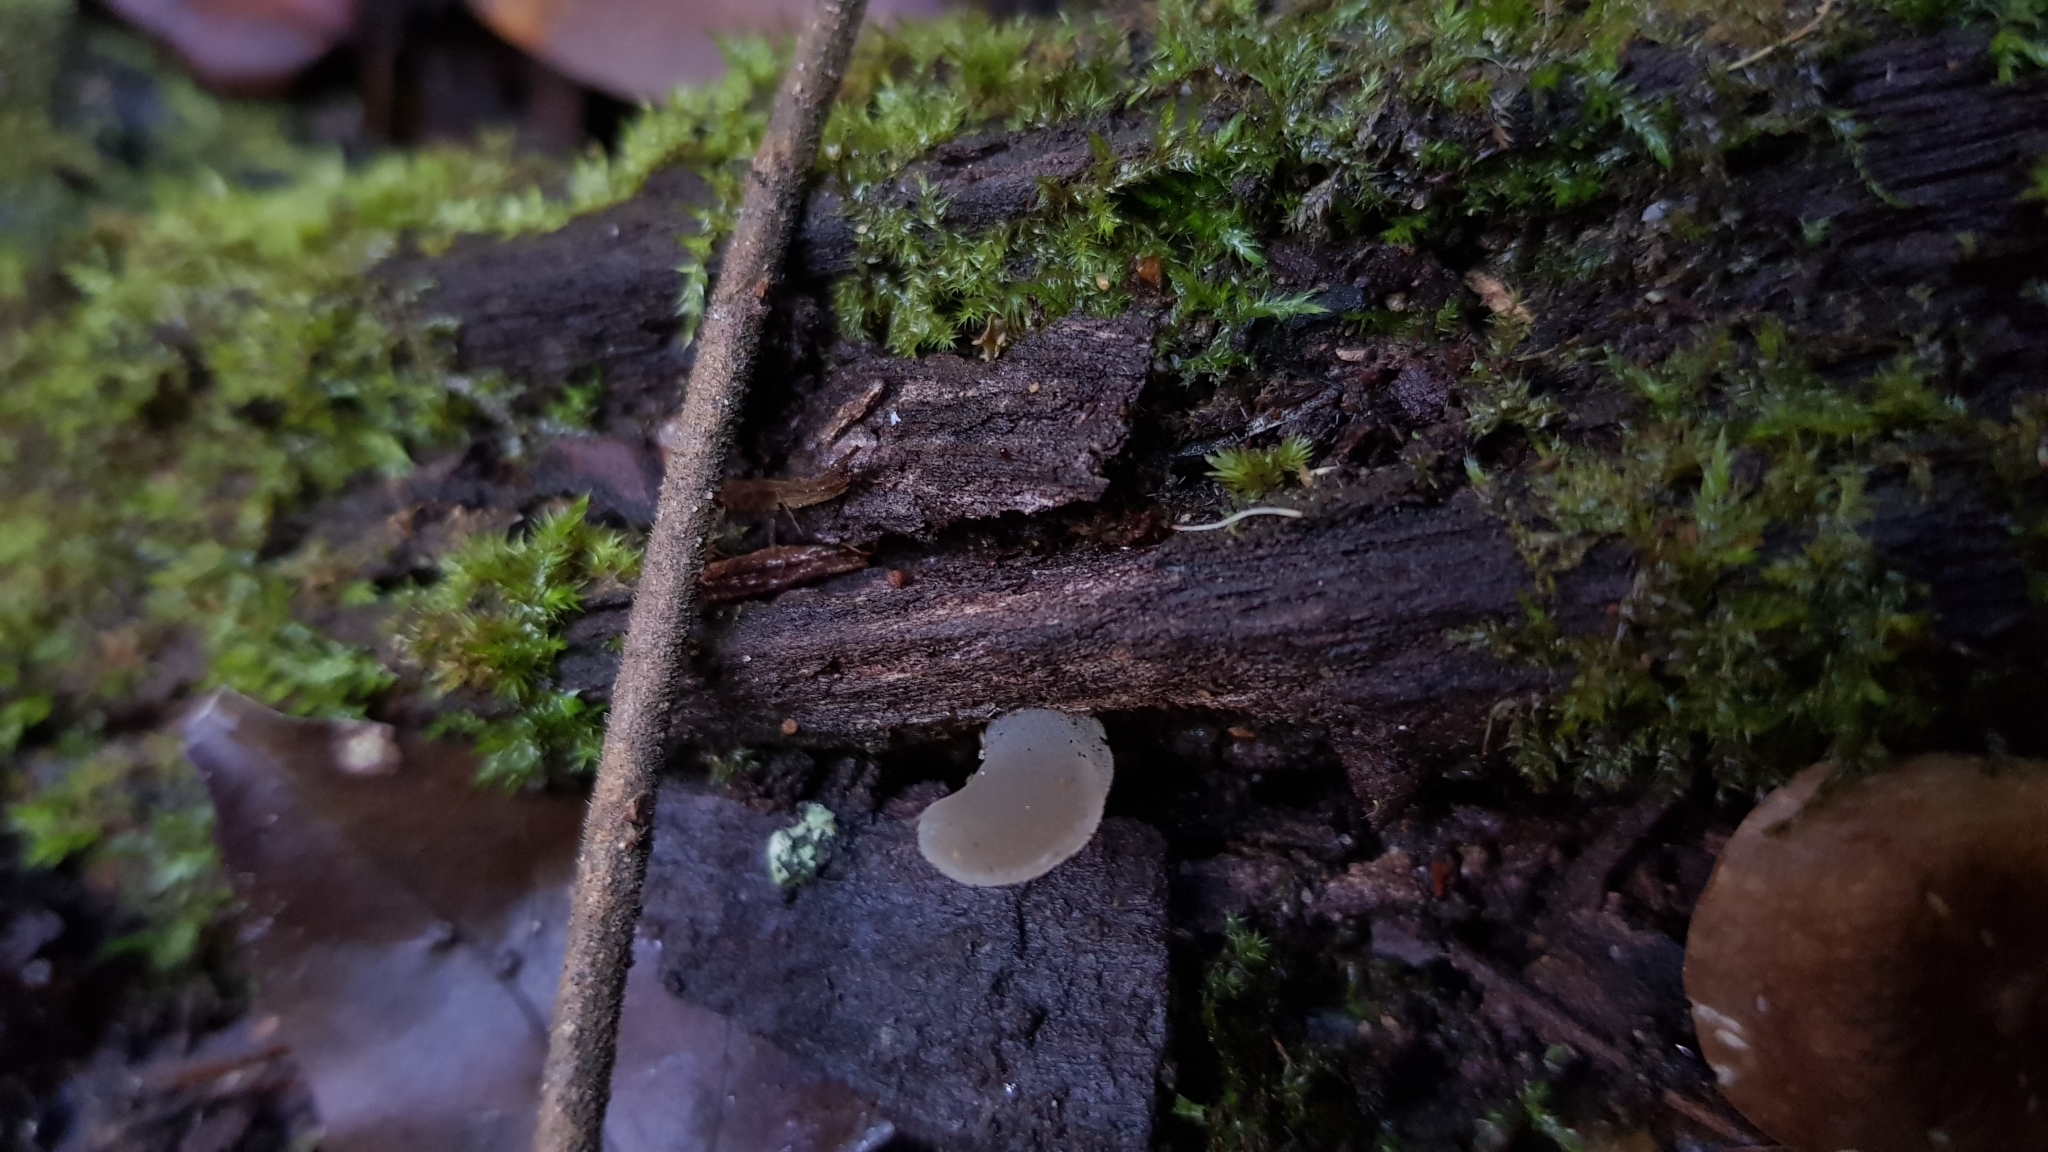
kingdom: Fungi
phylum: Basidiomycota
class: Agaricomycetes
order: Auriculariales
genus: Pseudohydnum
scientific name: Pseudohydnum gelatinosum
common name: Jelly tongue
